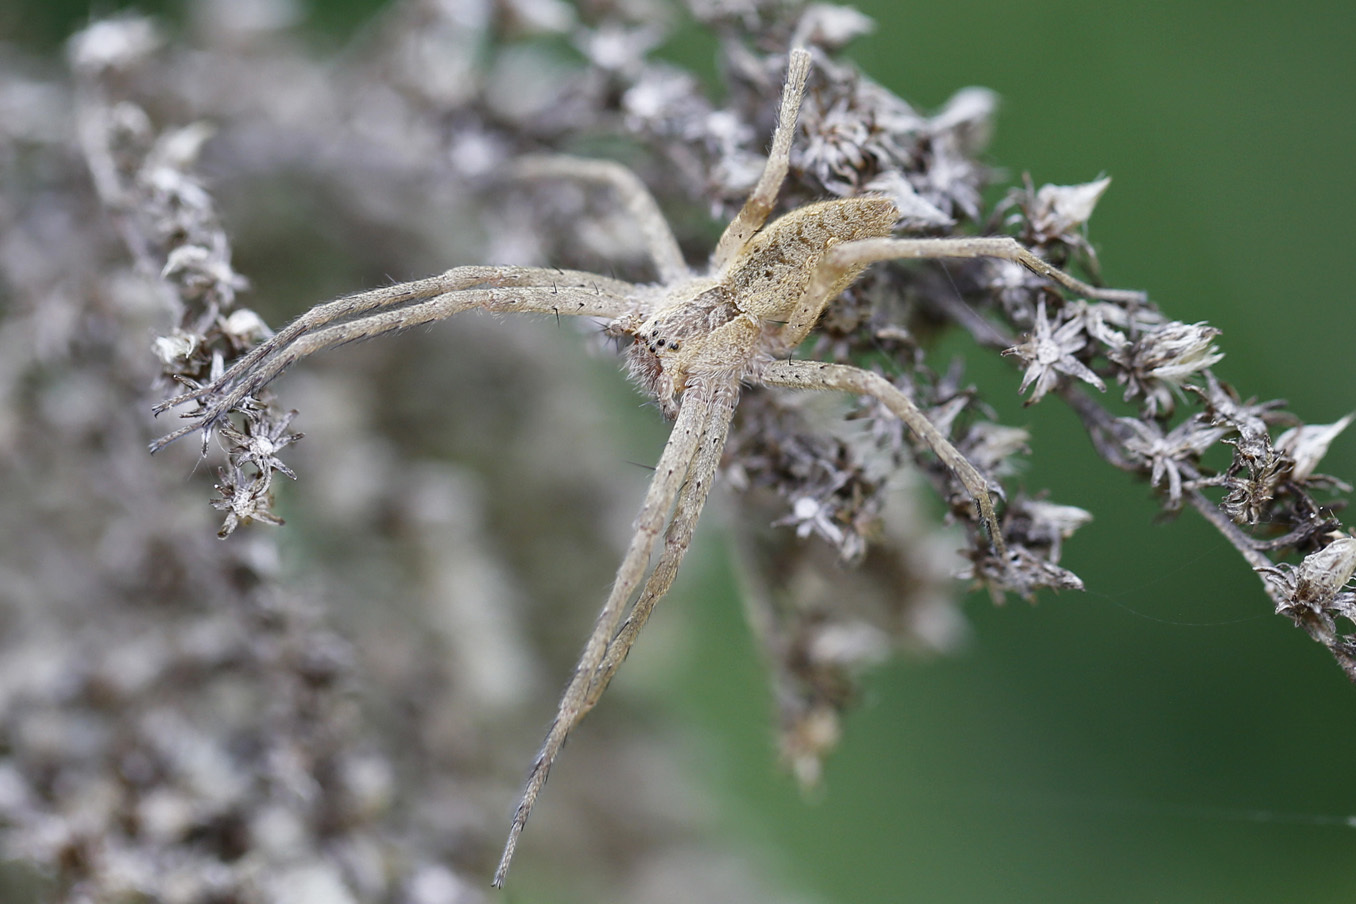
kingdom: Animalia
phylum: Arthropoda
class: Arachnida
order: Araneae
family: Pisauridae
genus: Pisaurina
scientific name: Pisaurina mira
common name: American nursery web spider
